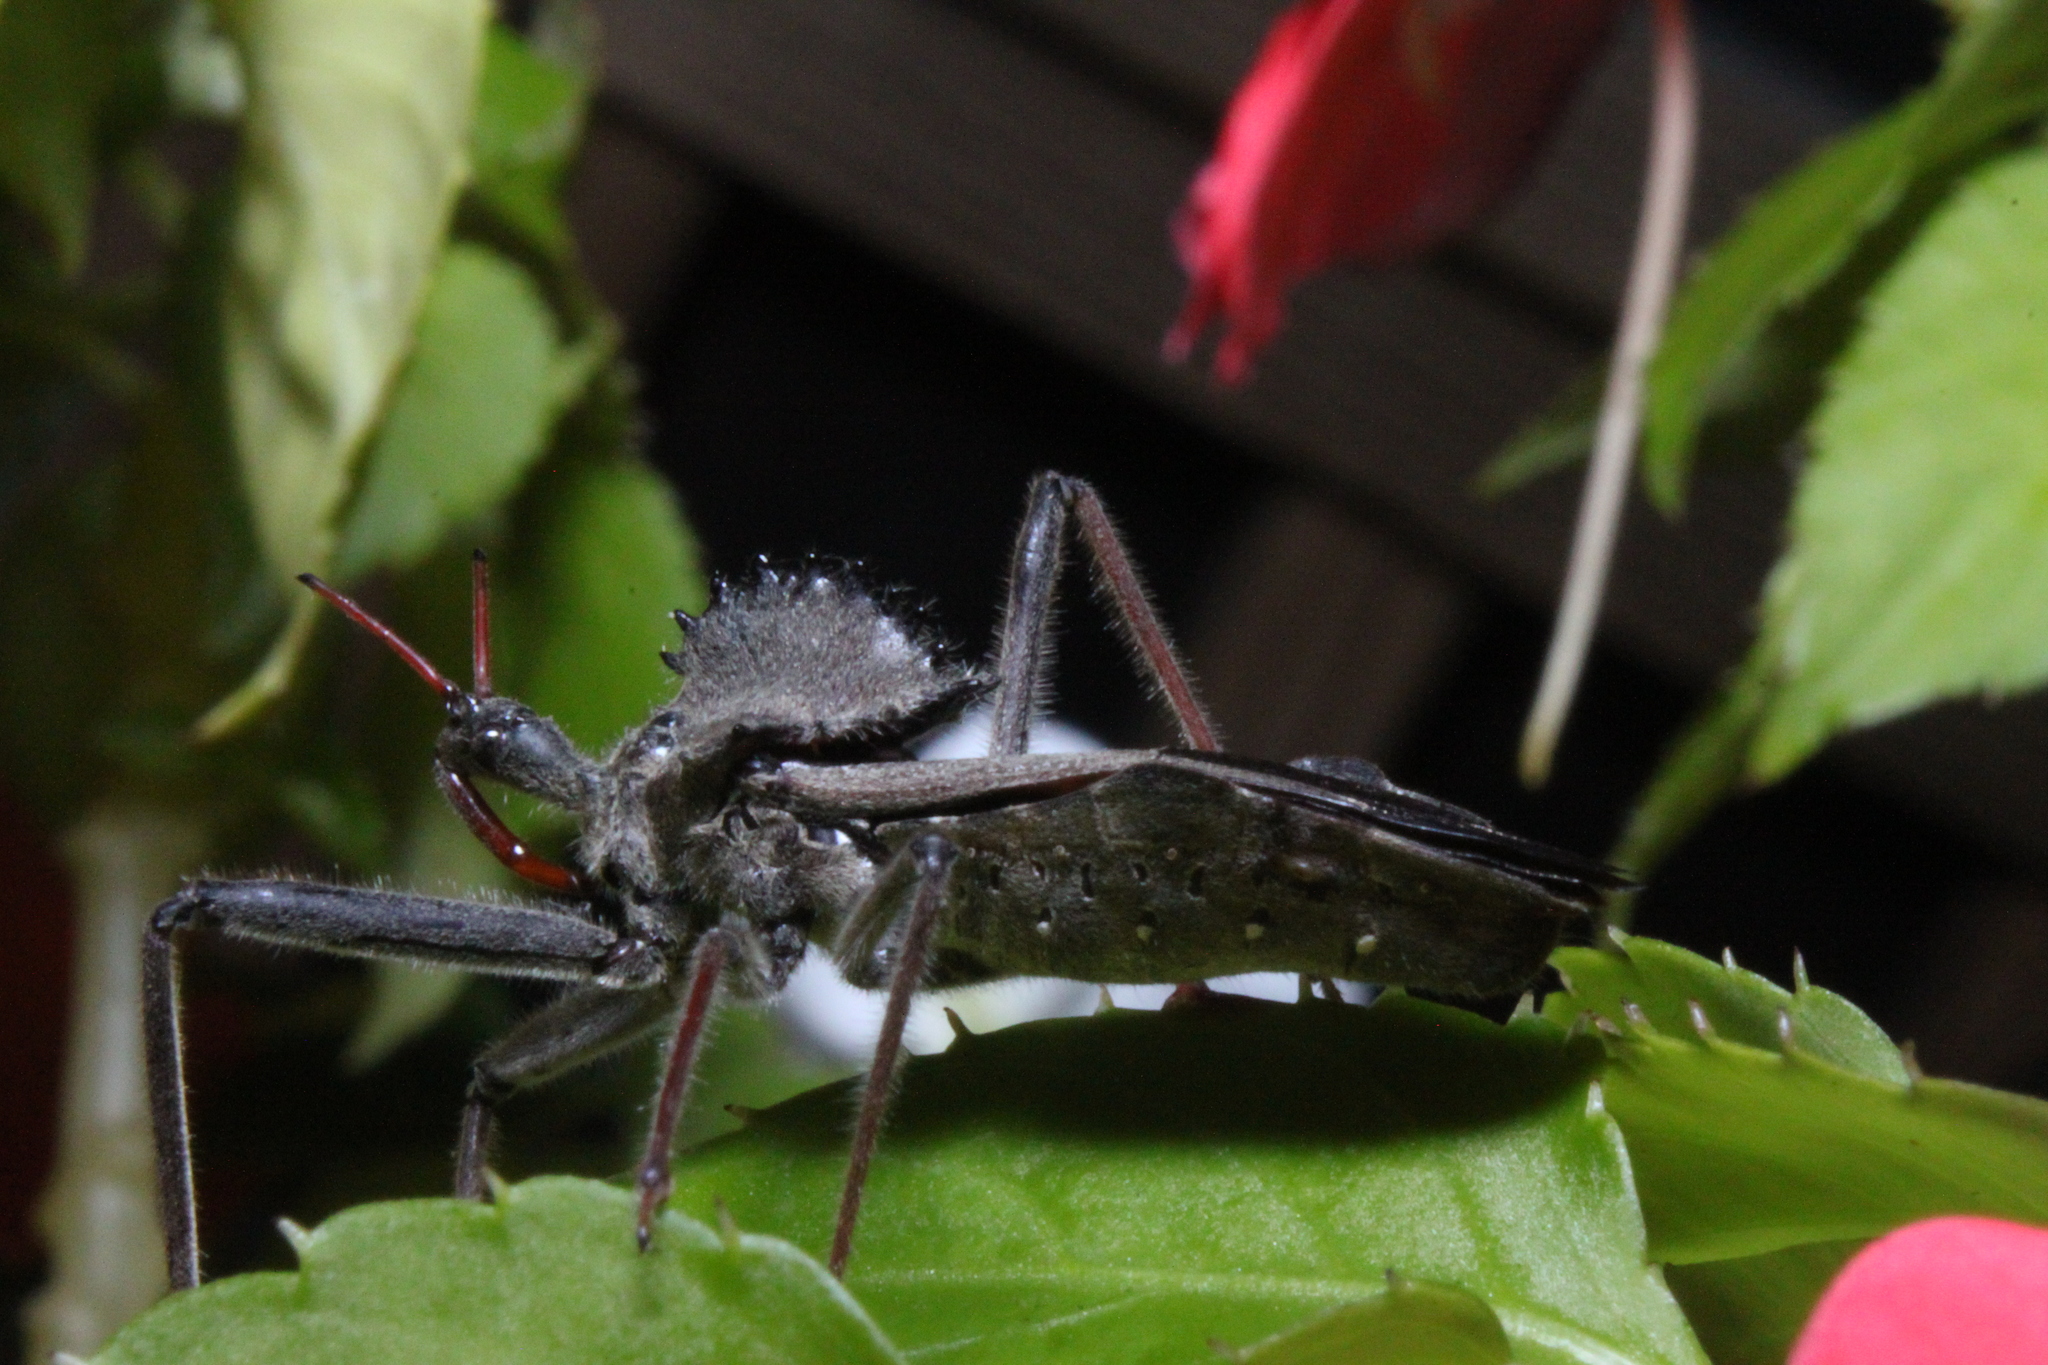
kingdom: Animalia
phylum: Arthropoda
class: Insecta
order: Hemiptera
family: Reduviidae
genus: Arilus
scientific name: Arilus cristatus
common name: North american wheel bug
